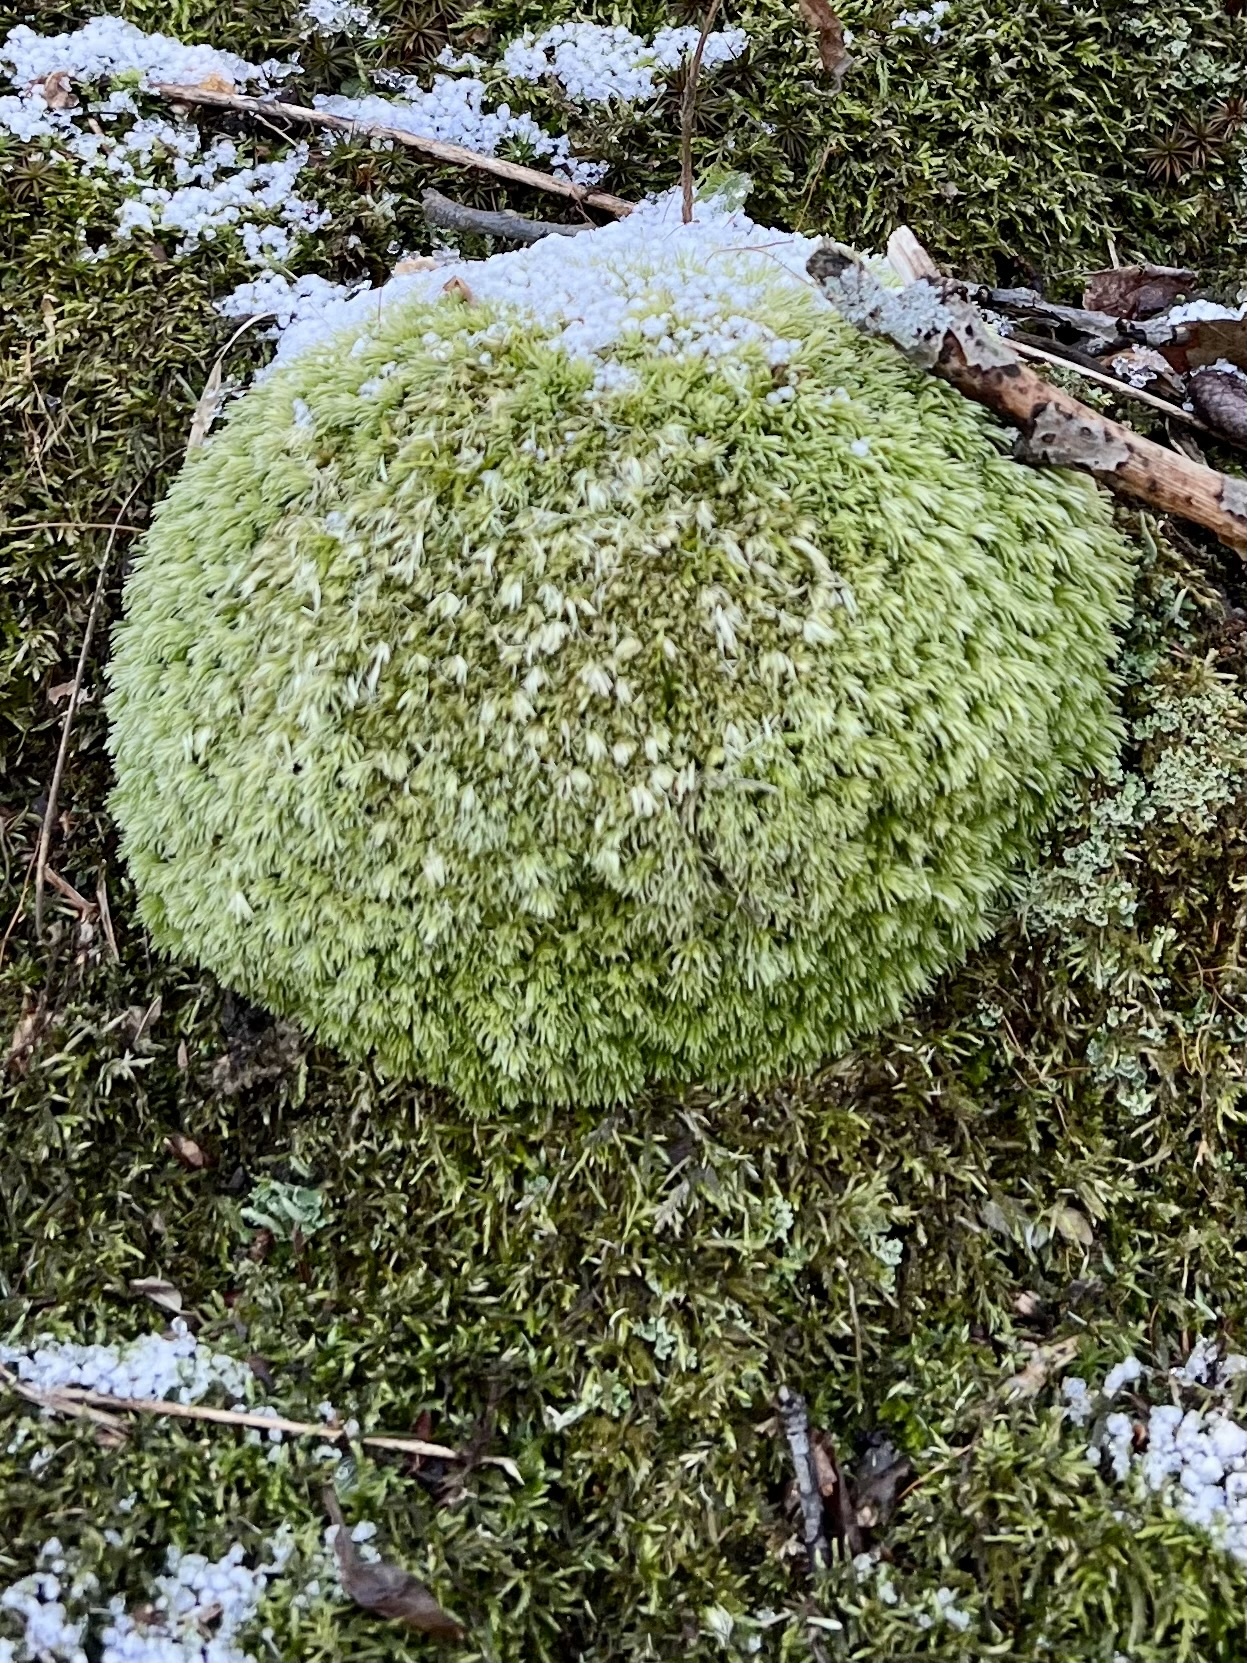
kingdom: Plantae
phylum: Bryophyta
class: Bryopsida
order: Dicranales
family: Leucobryaceae
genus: Leucobryum
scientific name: Leucobryum glaucum
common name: Large white-moss
